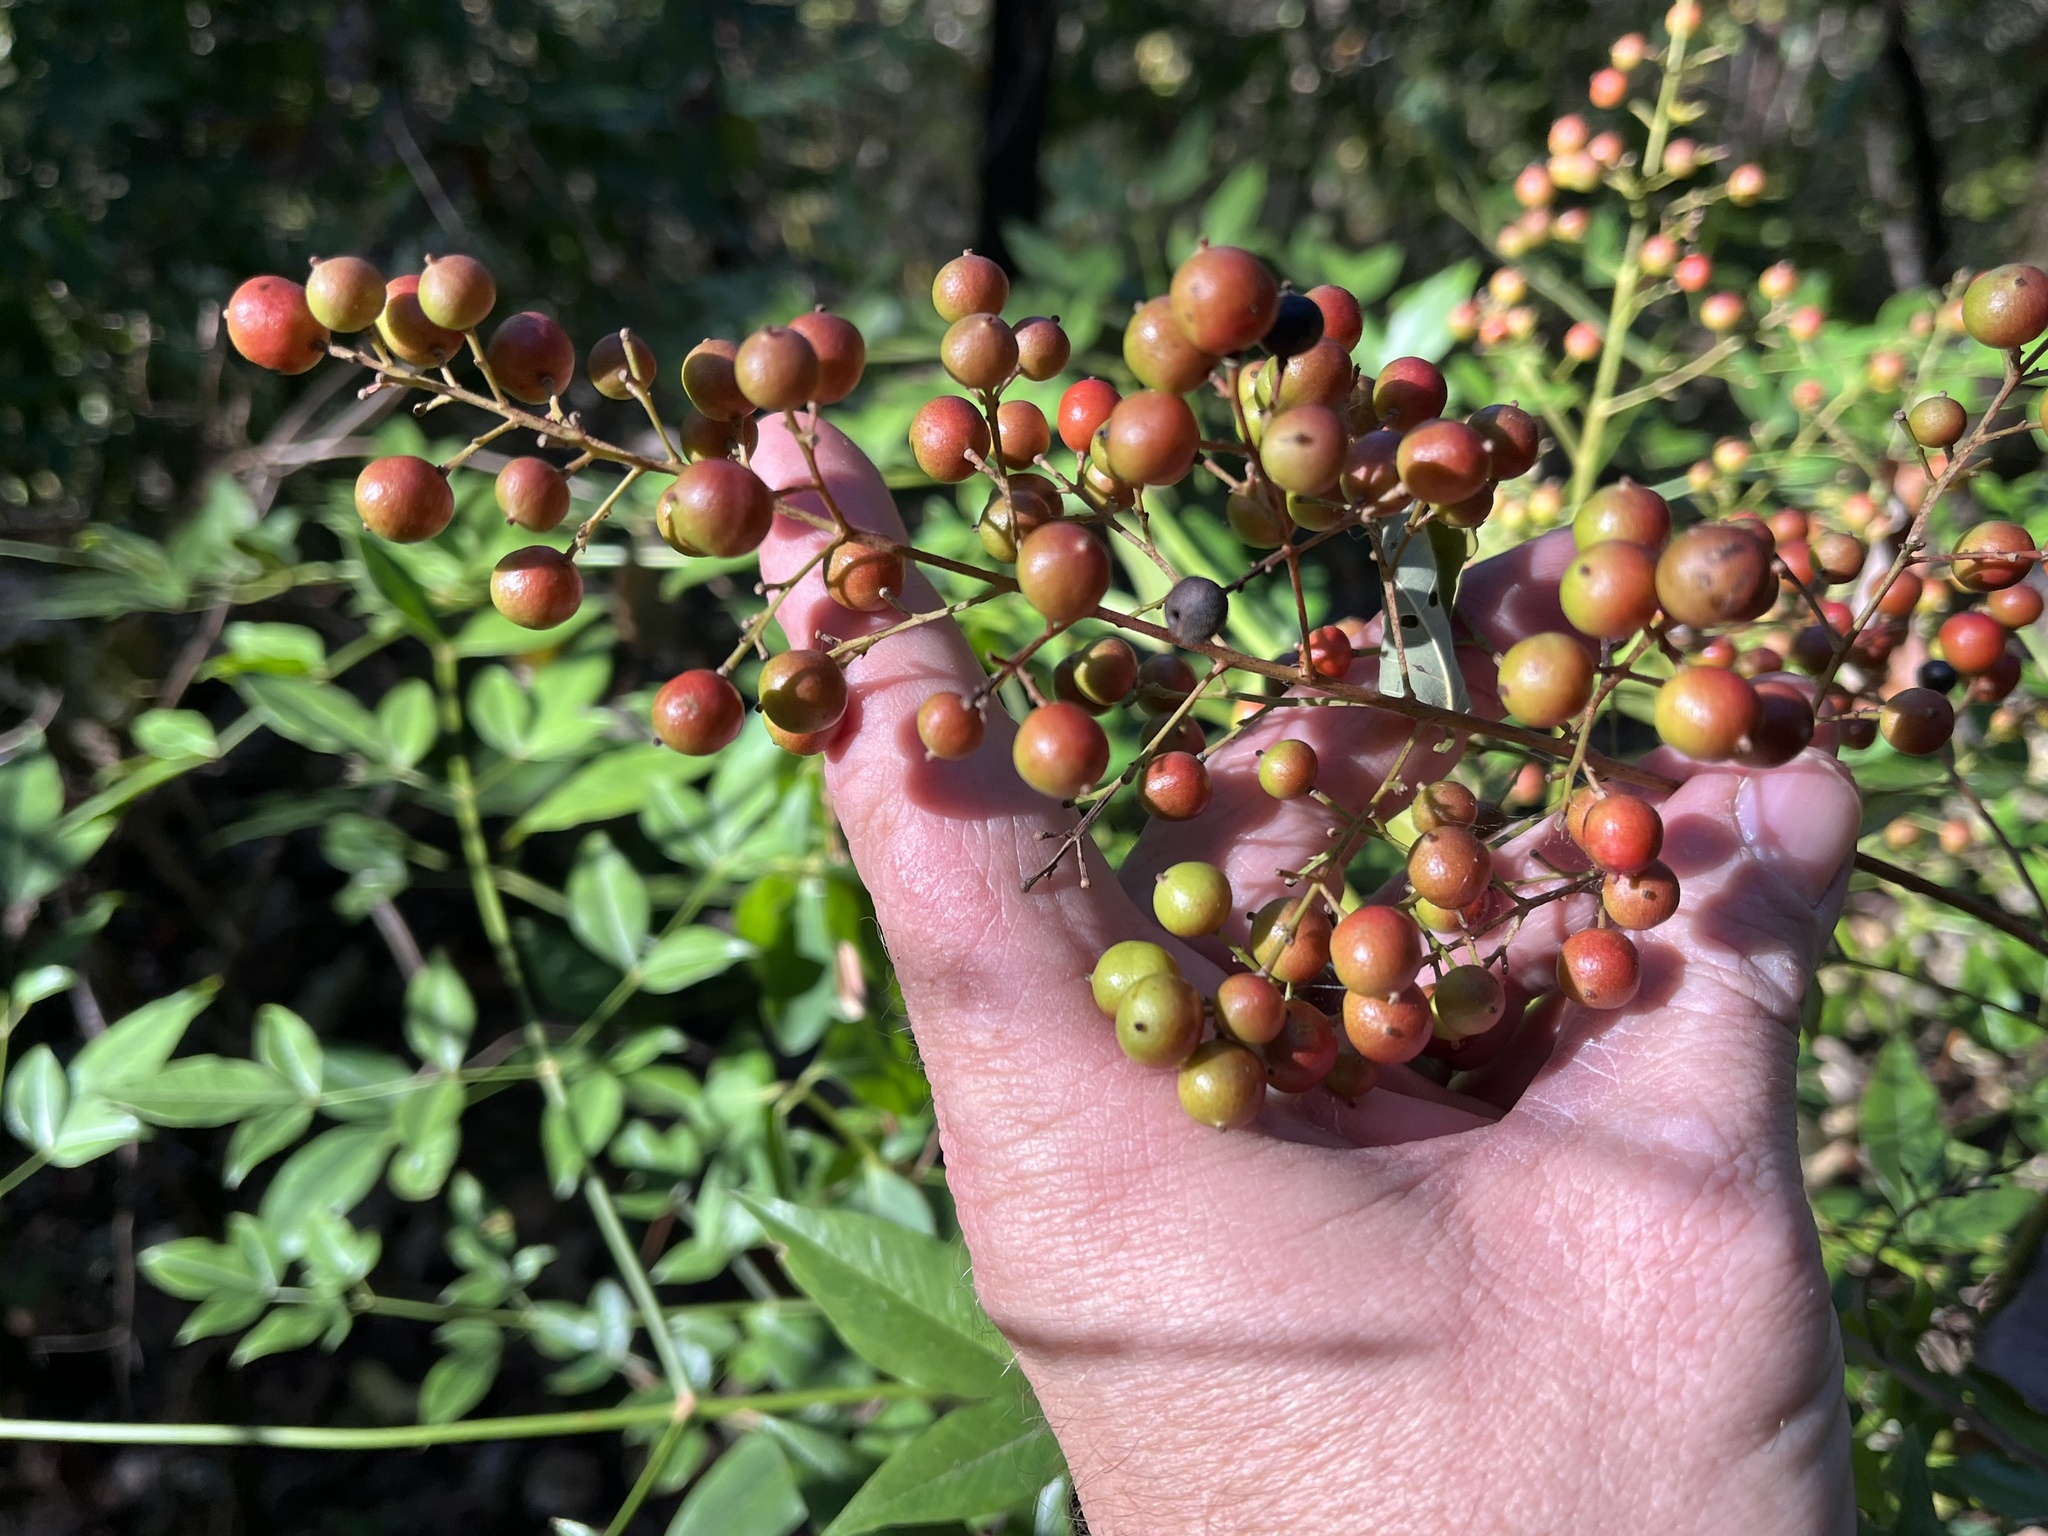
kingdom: Plantae
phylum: Tracheophyta
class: Magnoliopsida
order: Ranunculales
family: Berberidaceae
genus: Nandina
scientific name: Nandina domestica
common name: Sacred bamboo
